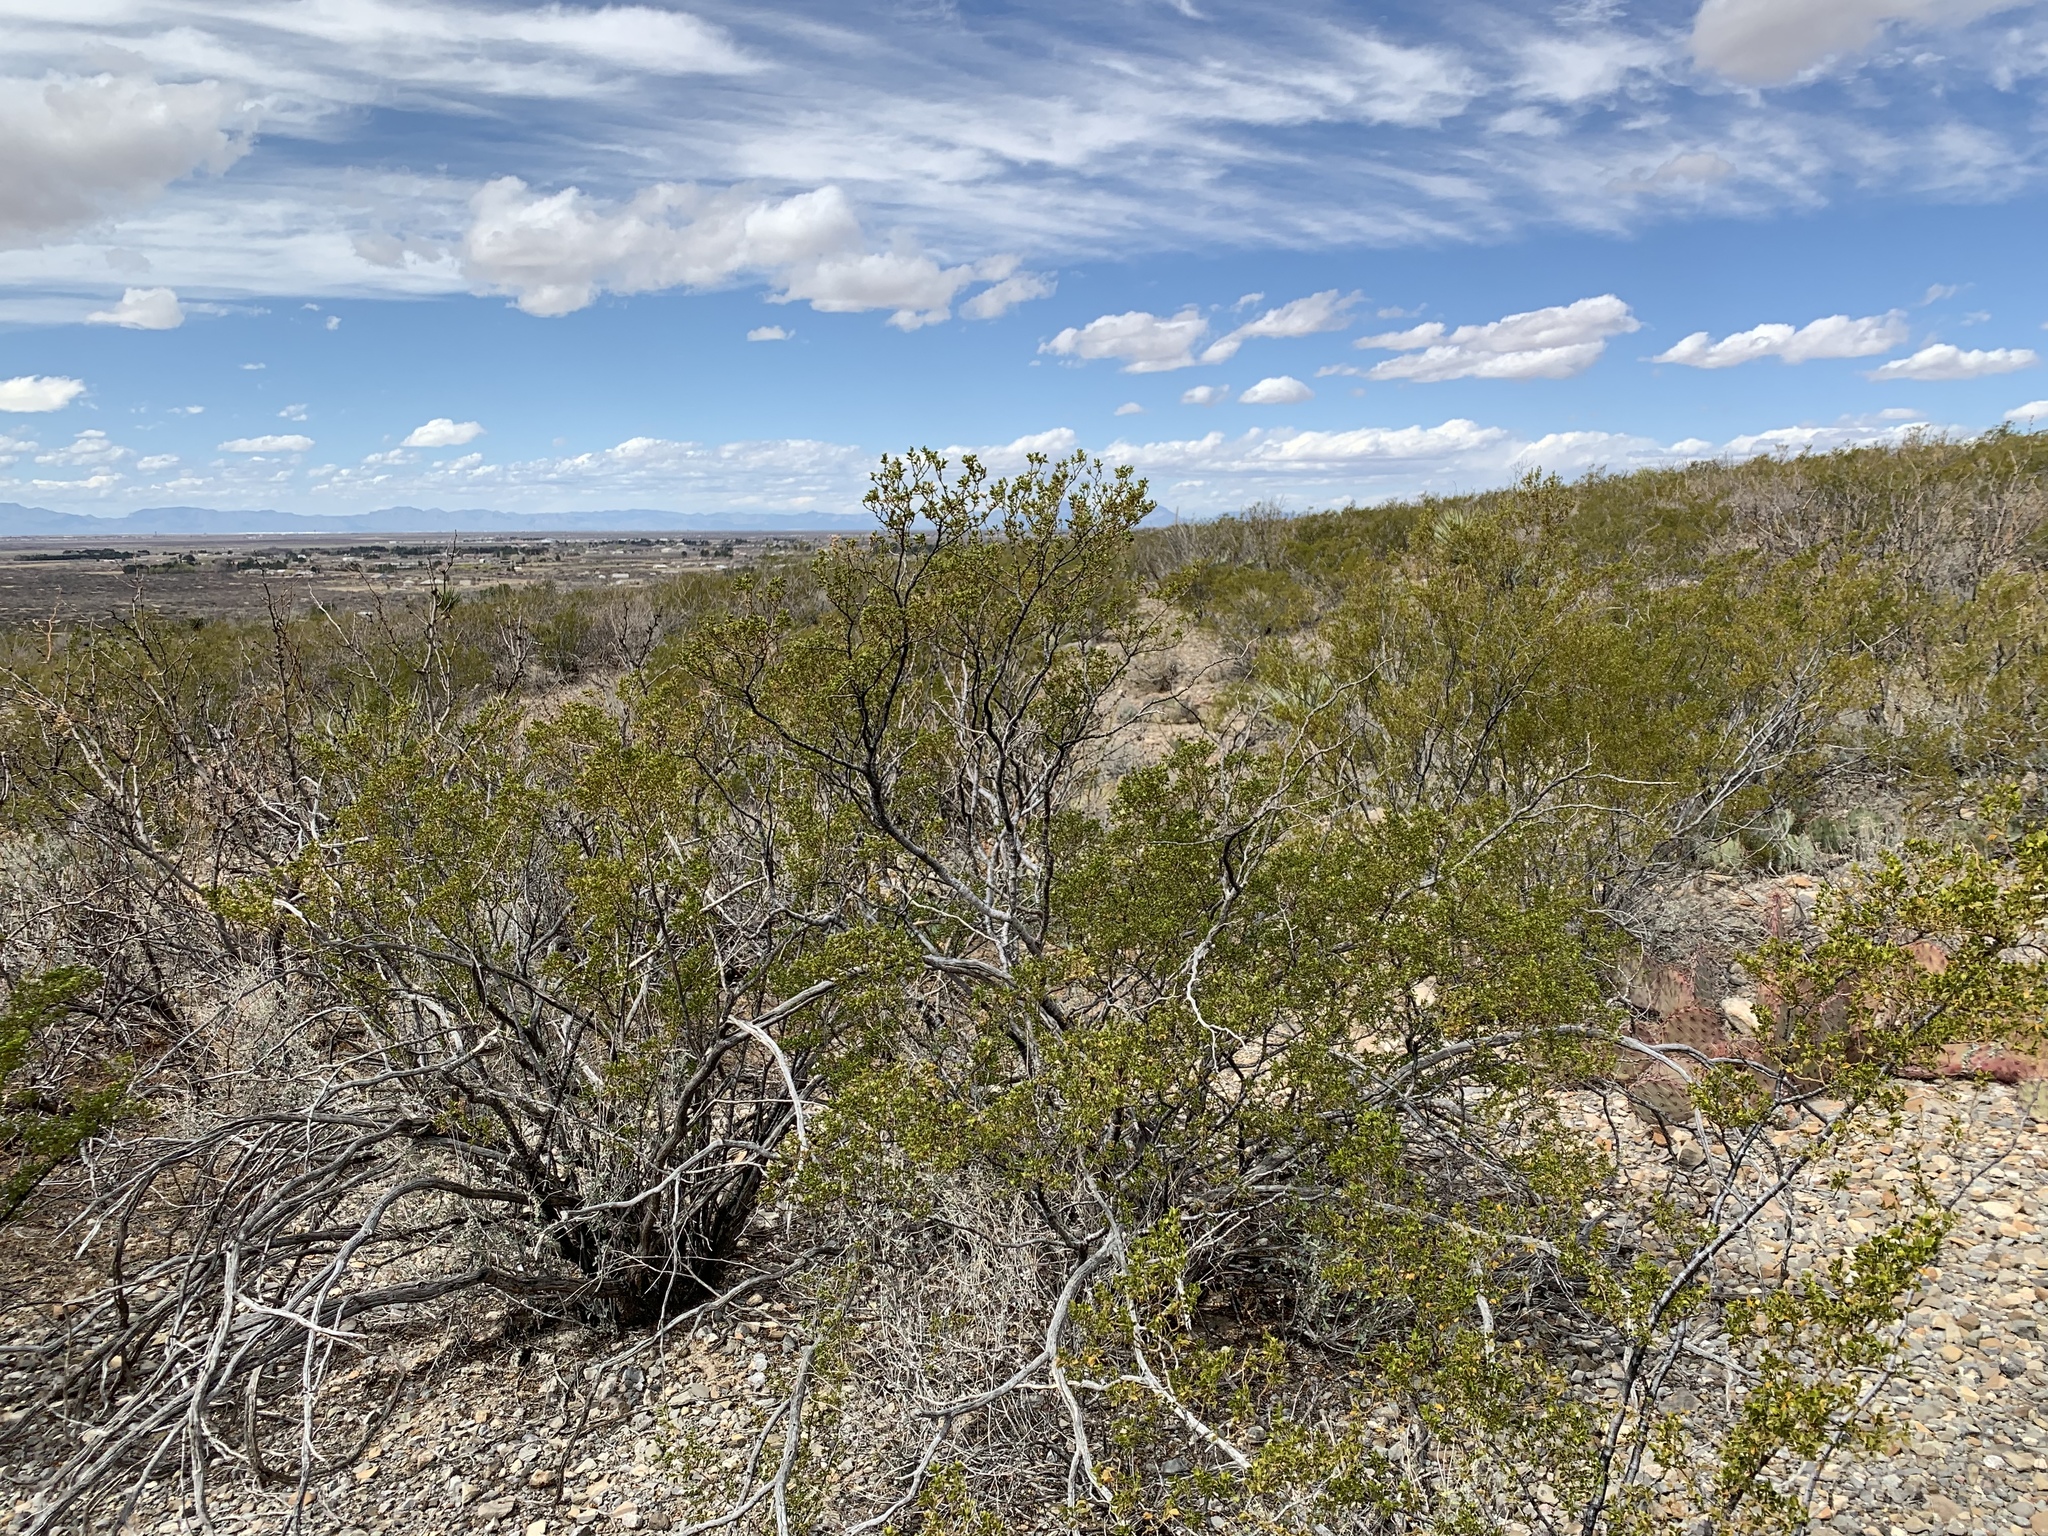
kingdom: Plantae
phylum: Tracheophyta
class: Magnoliopsida
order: Zygophyllales
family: Zygophyllaceae
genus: Larrea
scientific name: Larrea tridentata
